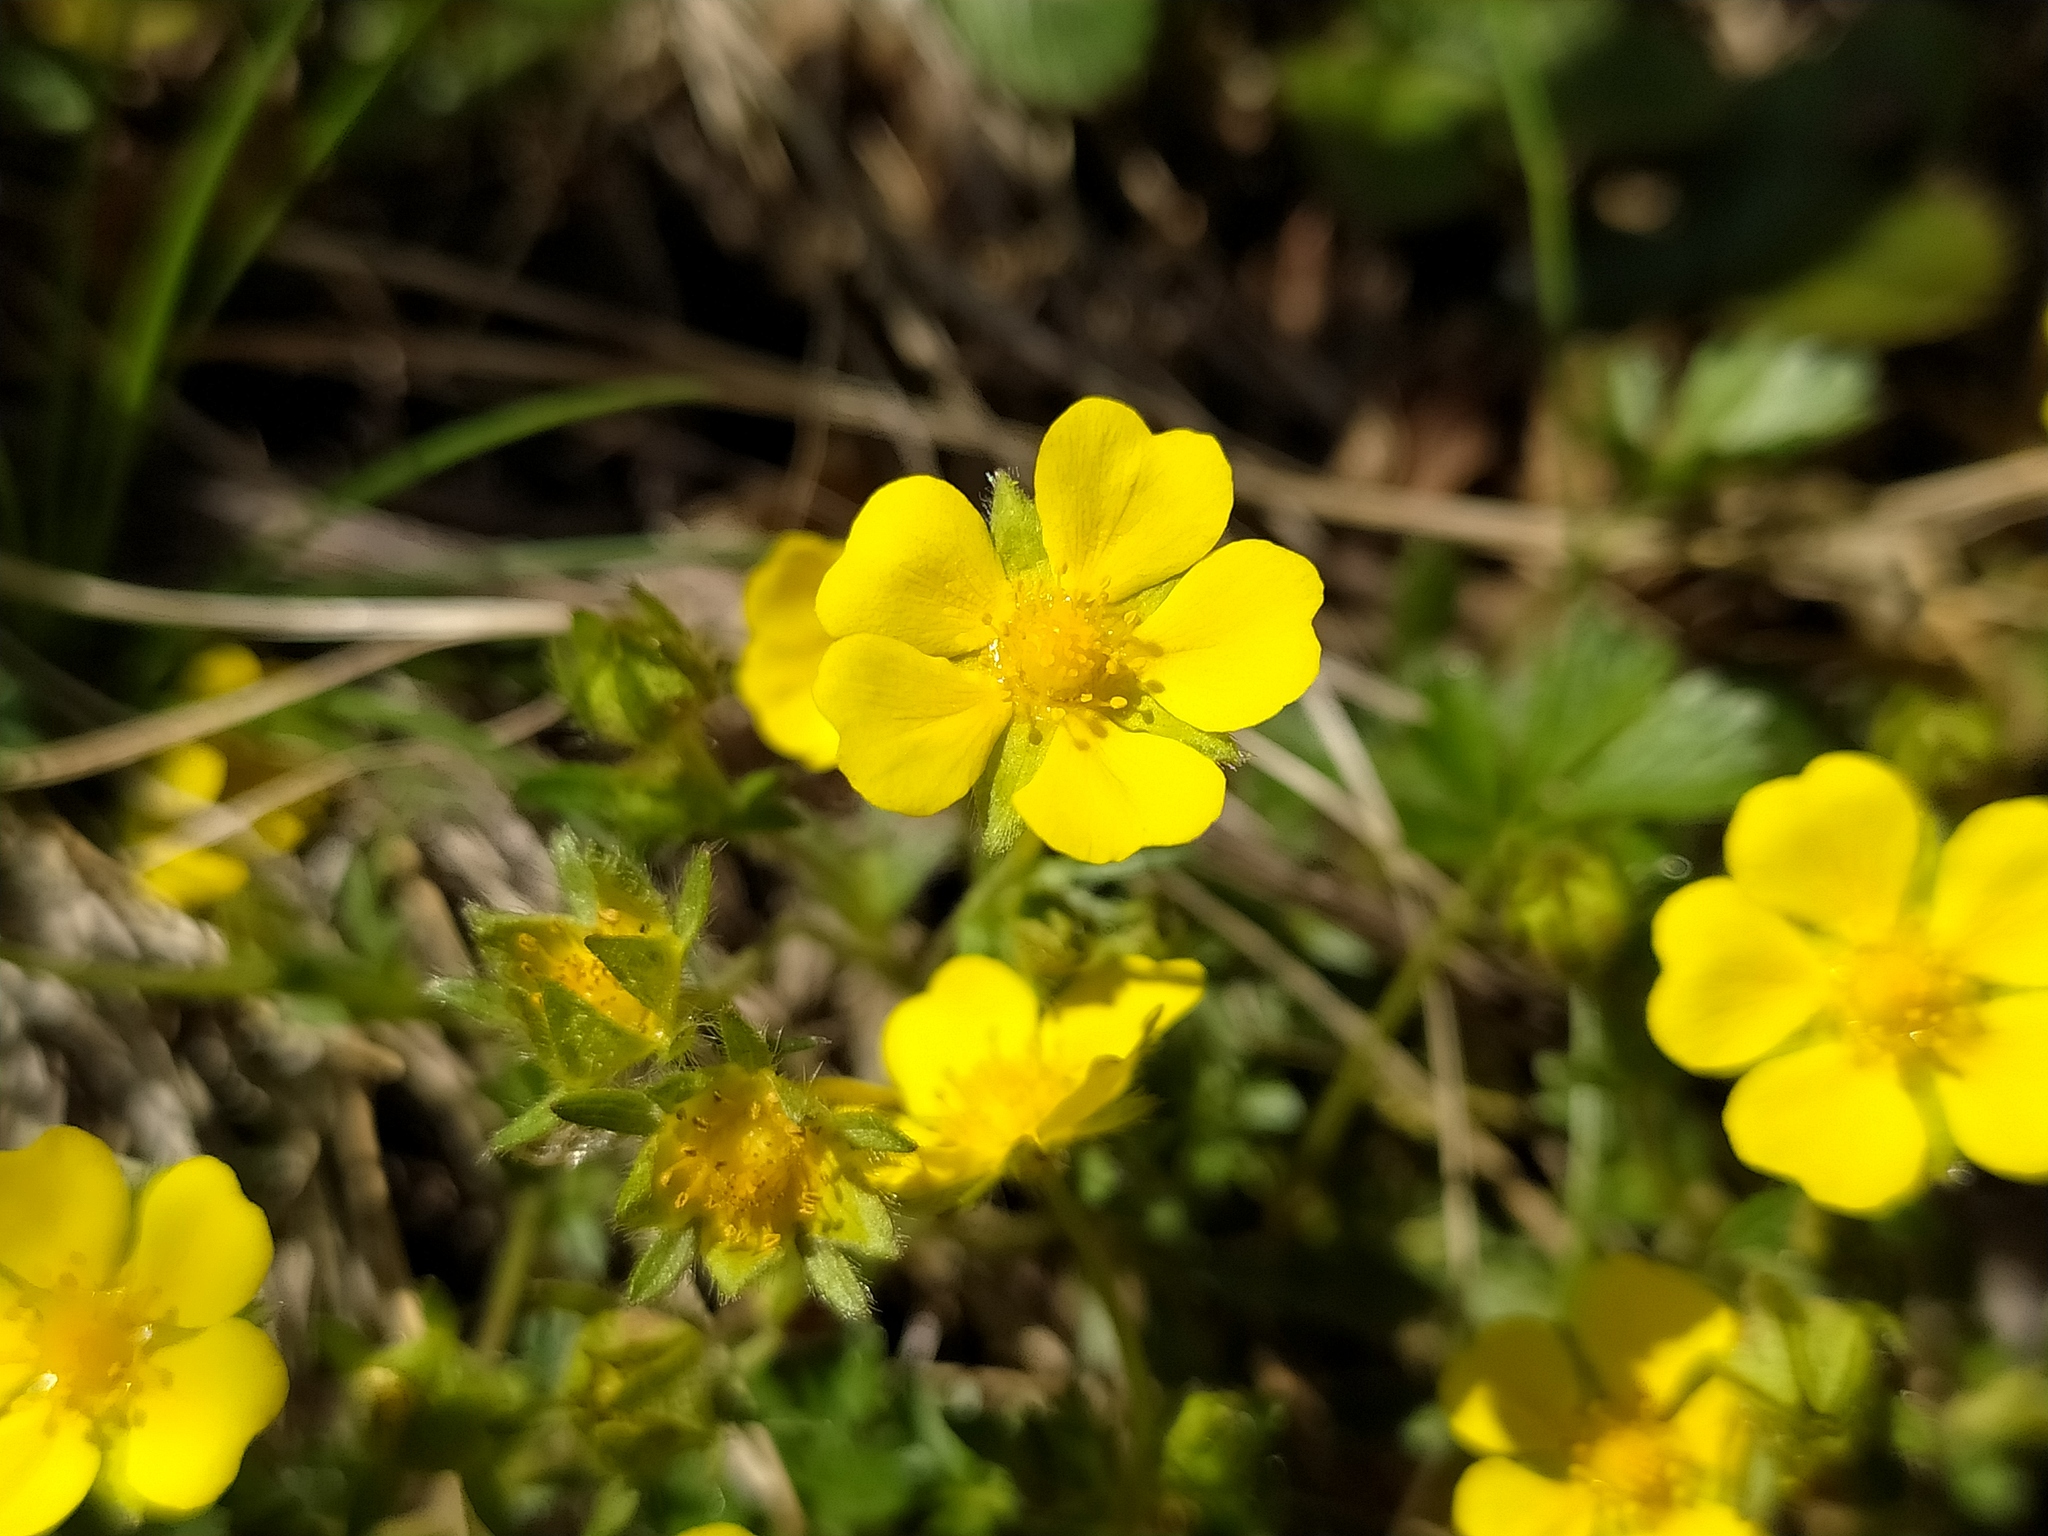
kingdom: Plantae
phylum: Tracheophyta
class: Magnoliopsida
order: Rosales
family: Rosaceae
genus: Potentilla
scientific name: Potentilla verna
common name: Spring cinquefoil
